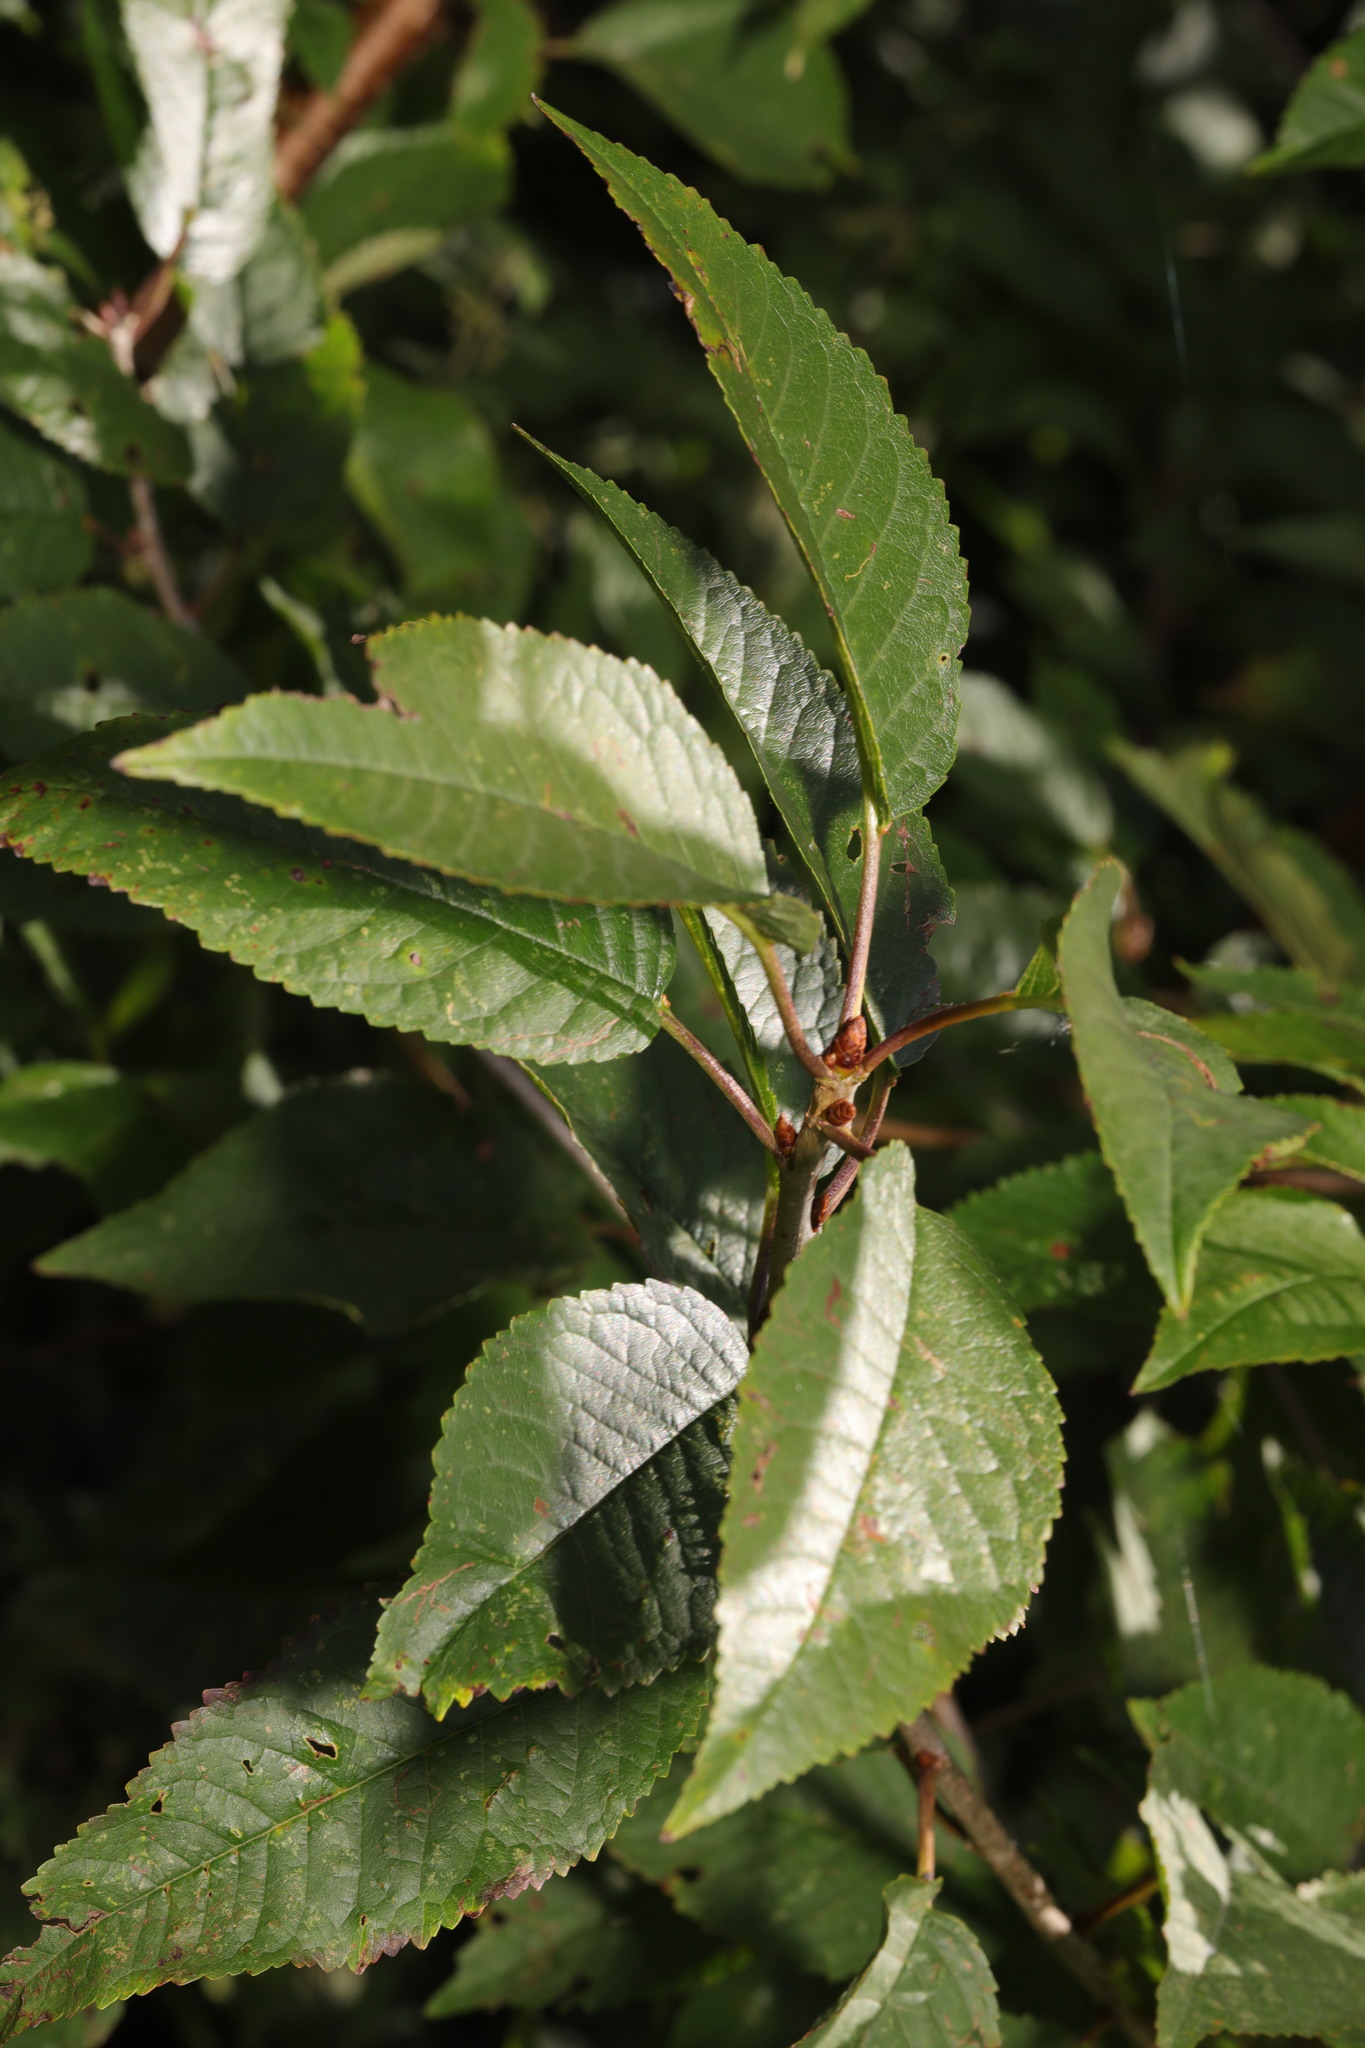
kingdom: Plantae
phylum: Tracheophyta
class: Magnoliopsida
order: Rosales
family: Rosaceae
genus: Prunus
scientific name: Prunus avium
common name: Sweet cherry
